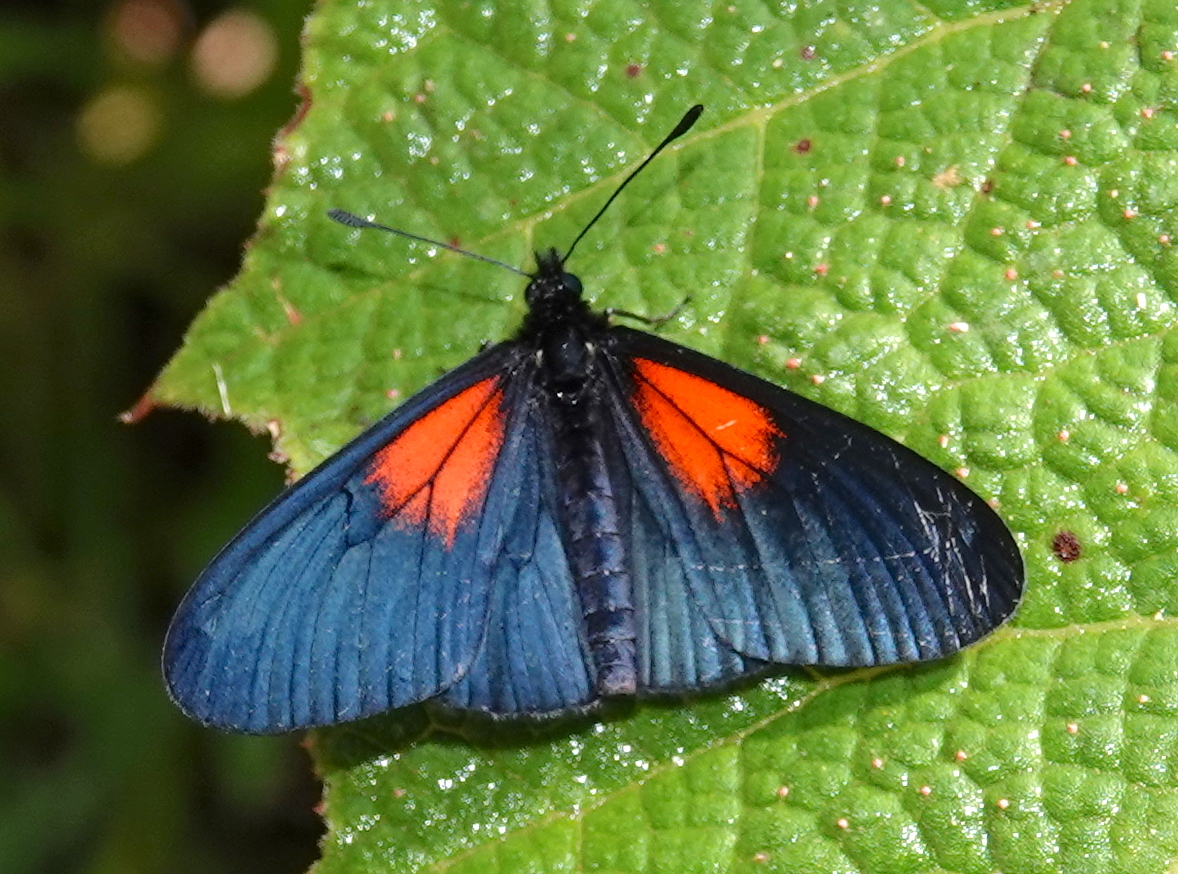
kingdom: Animalia
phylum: Arthropoda
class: Insecta
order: Lepidoptera
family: Nymphalidae
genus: Acraea
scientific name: Acraea Altinote ozomene
